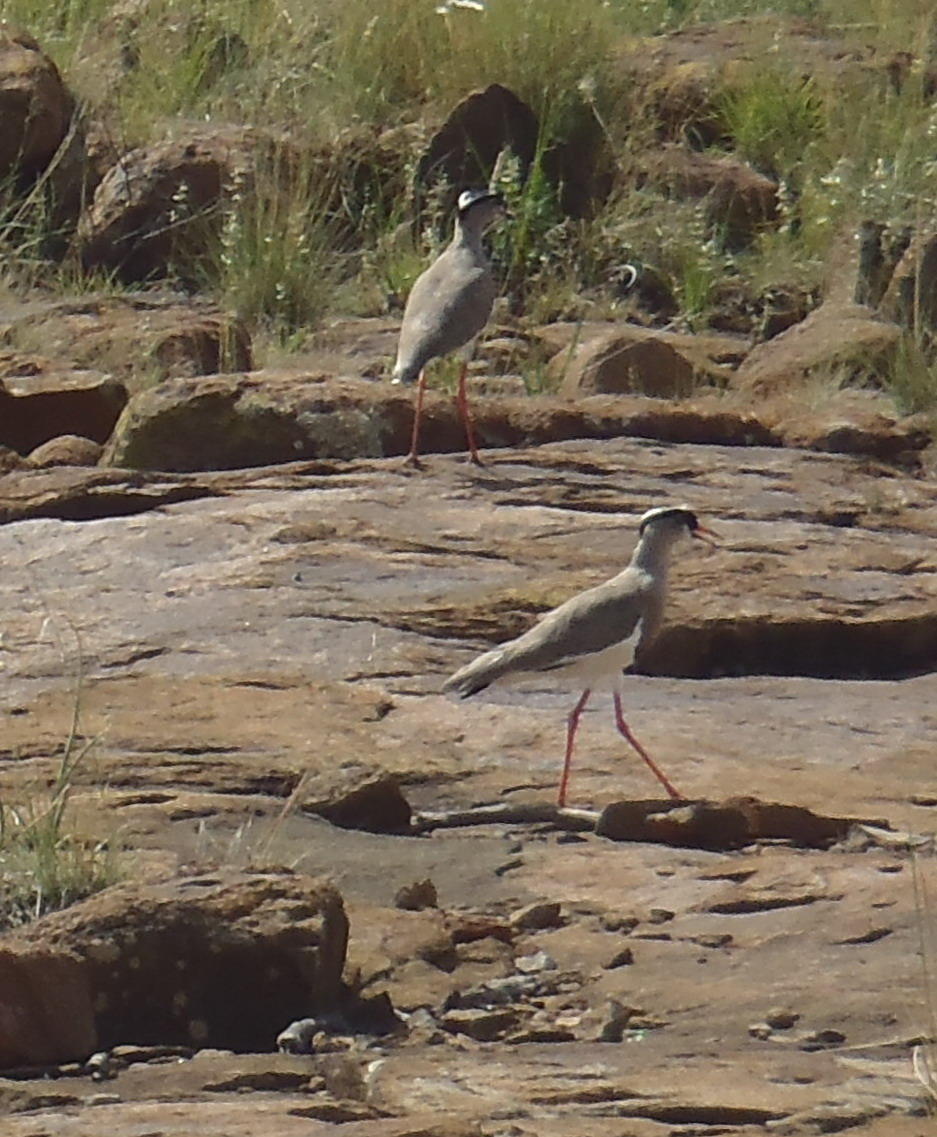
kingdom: Animalia
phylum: Chordata
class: Aves
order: Charadriiformes
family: Charadriidae
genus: Vanellus
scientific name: Vanellus coronatus
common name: Crowned lapwing
